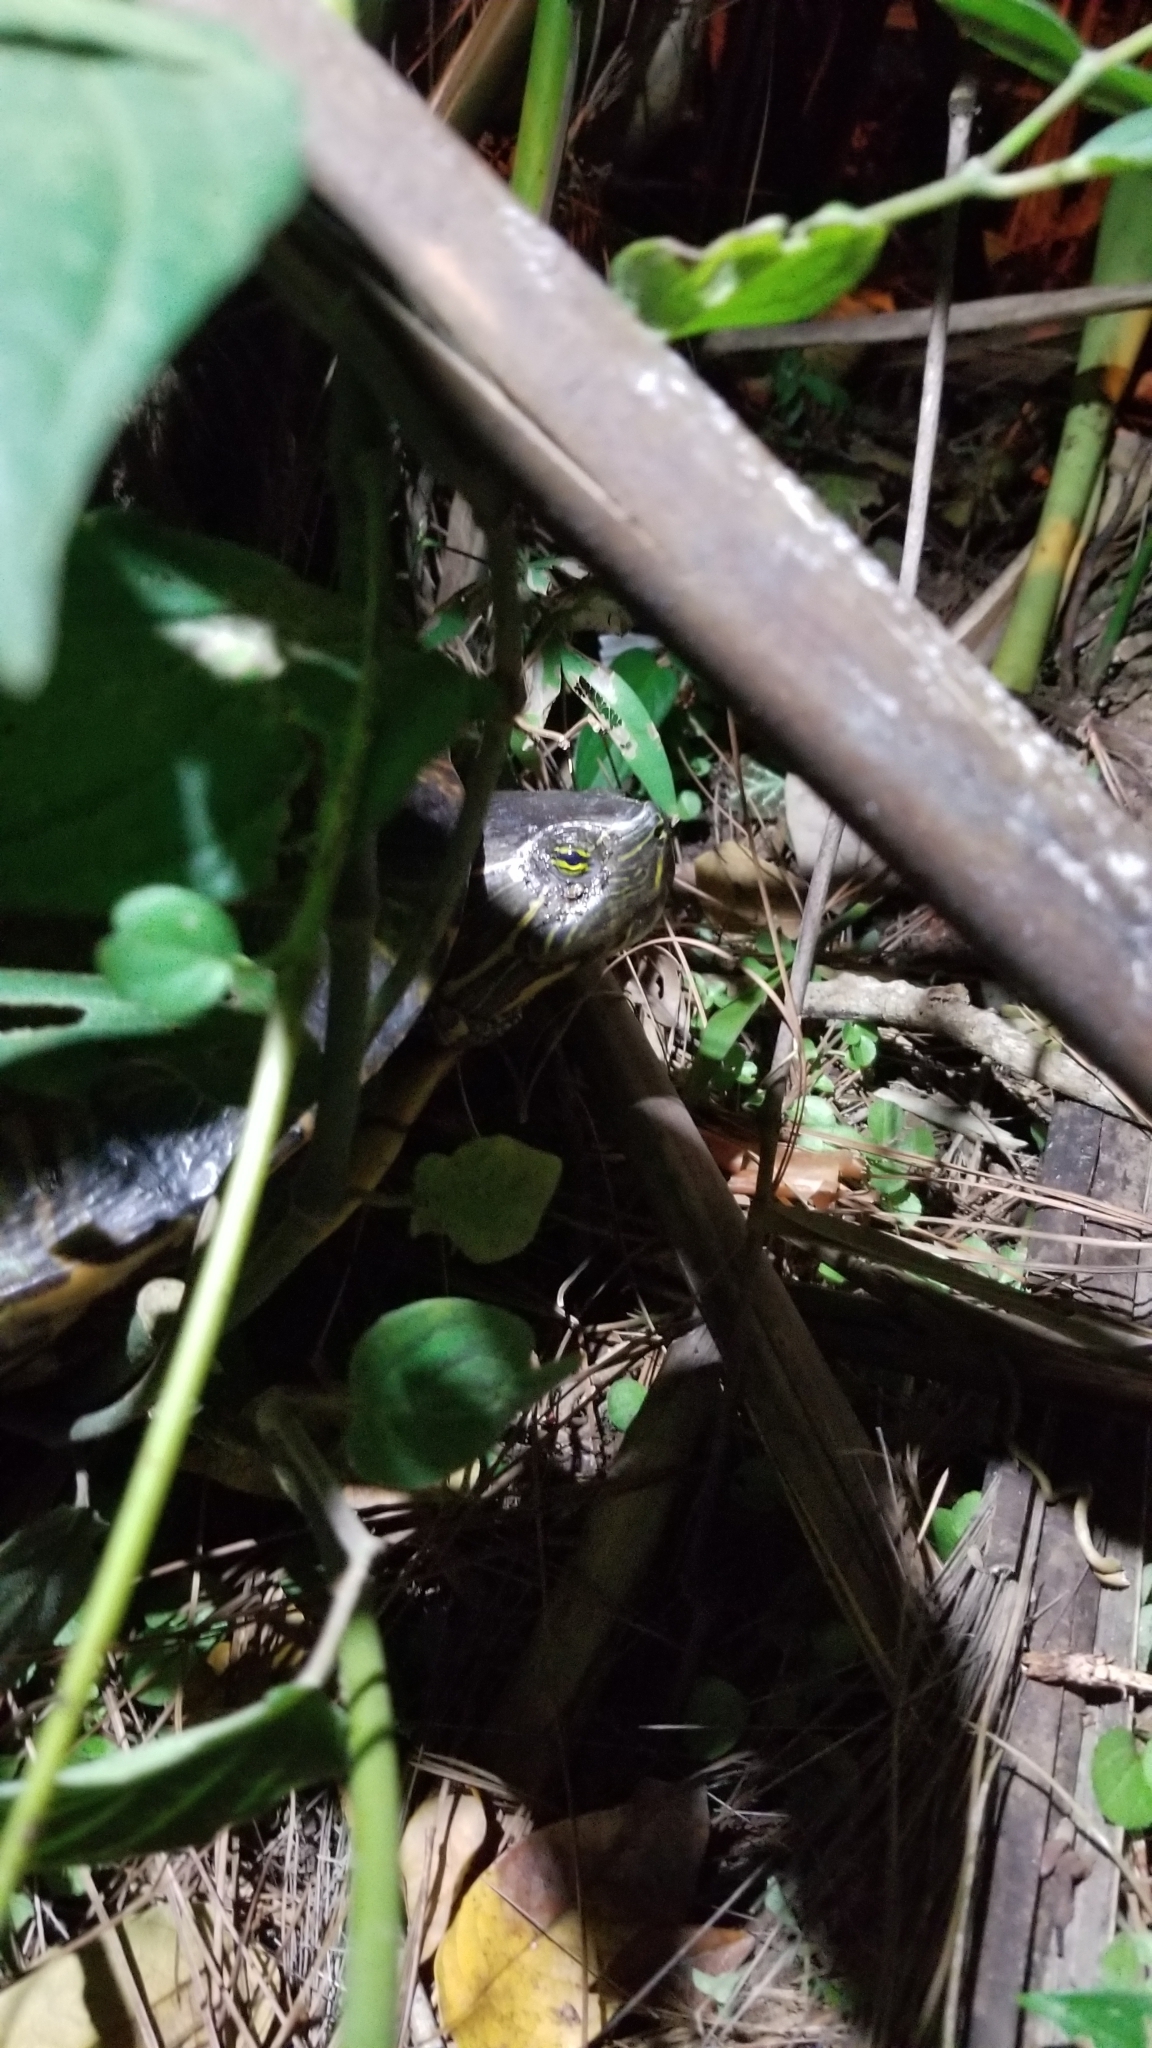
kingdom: Animalia
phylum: Chordata
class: Testudines
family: Emydidae
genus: Trachemys
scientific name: Trachemys grayi
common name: Gray's slider
